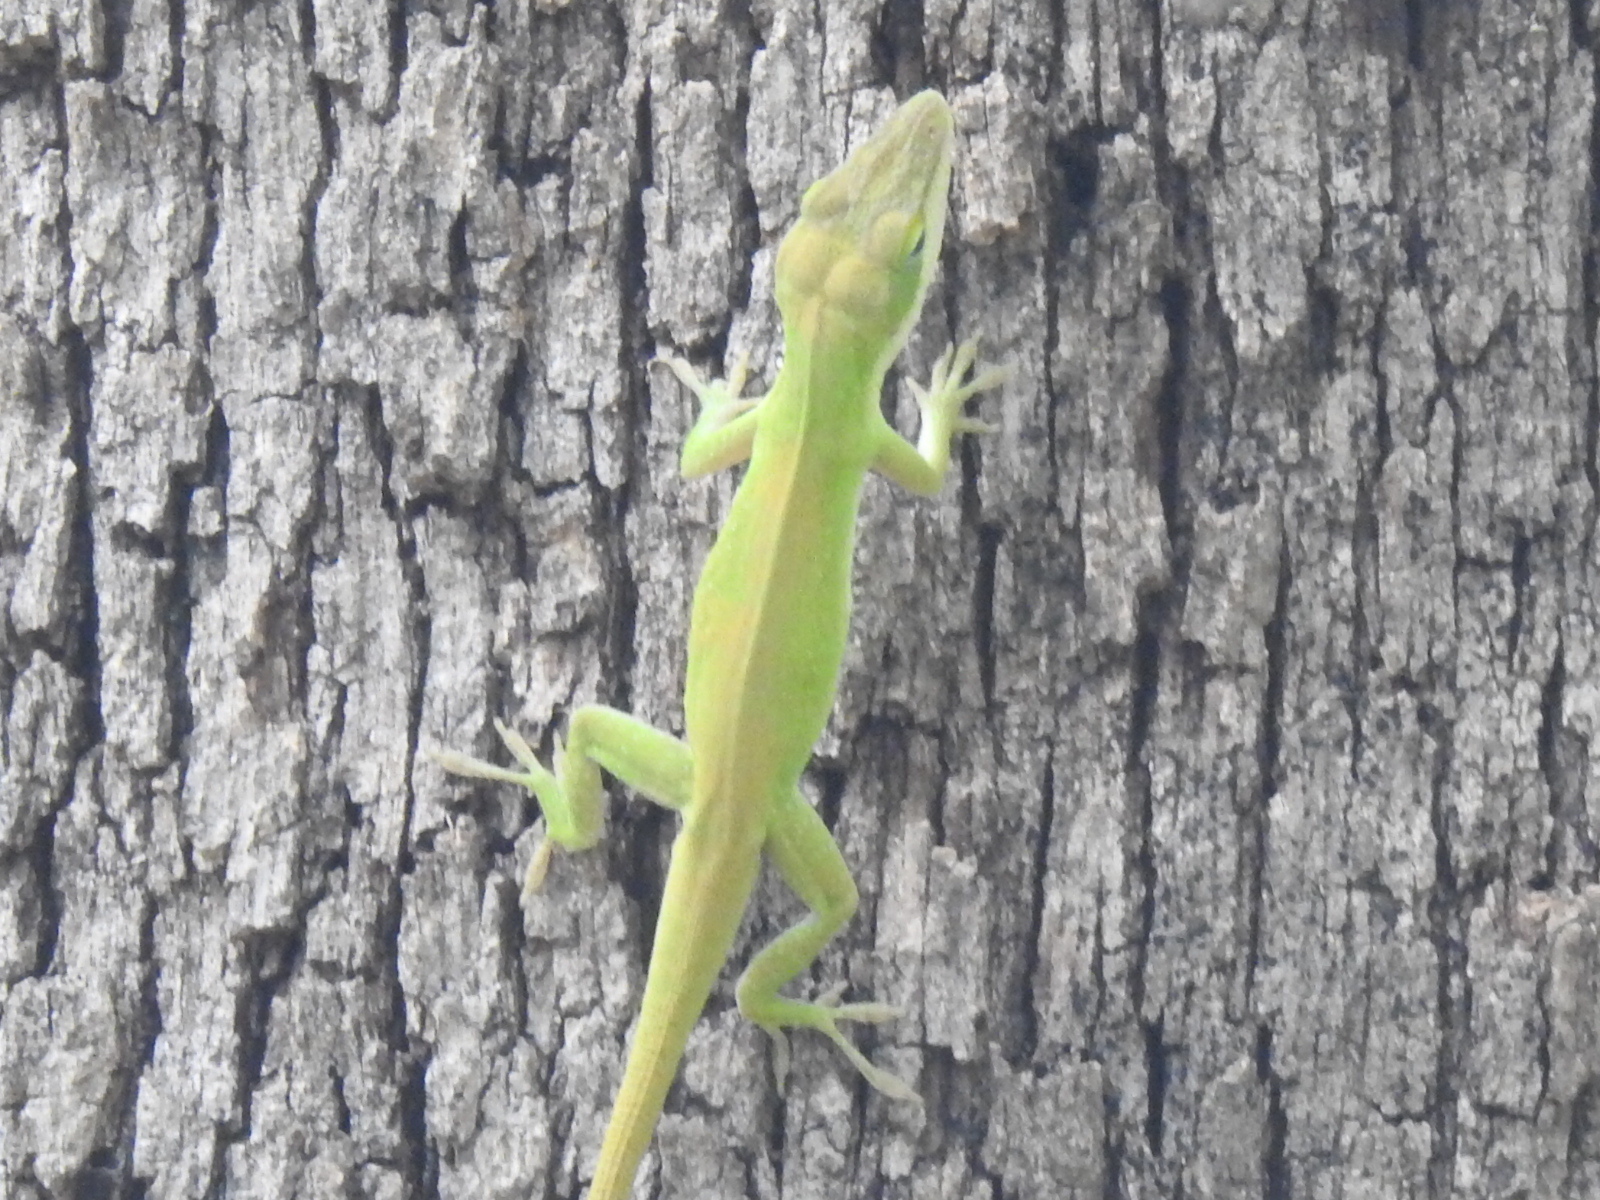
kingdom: Animalia
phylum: Chordata
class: Squamata
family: Dactyloidae
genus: Anolis
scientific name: Anolis carolinensis
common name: Green anole
